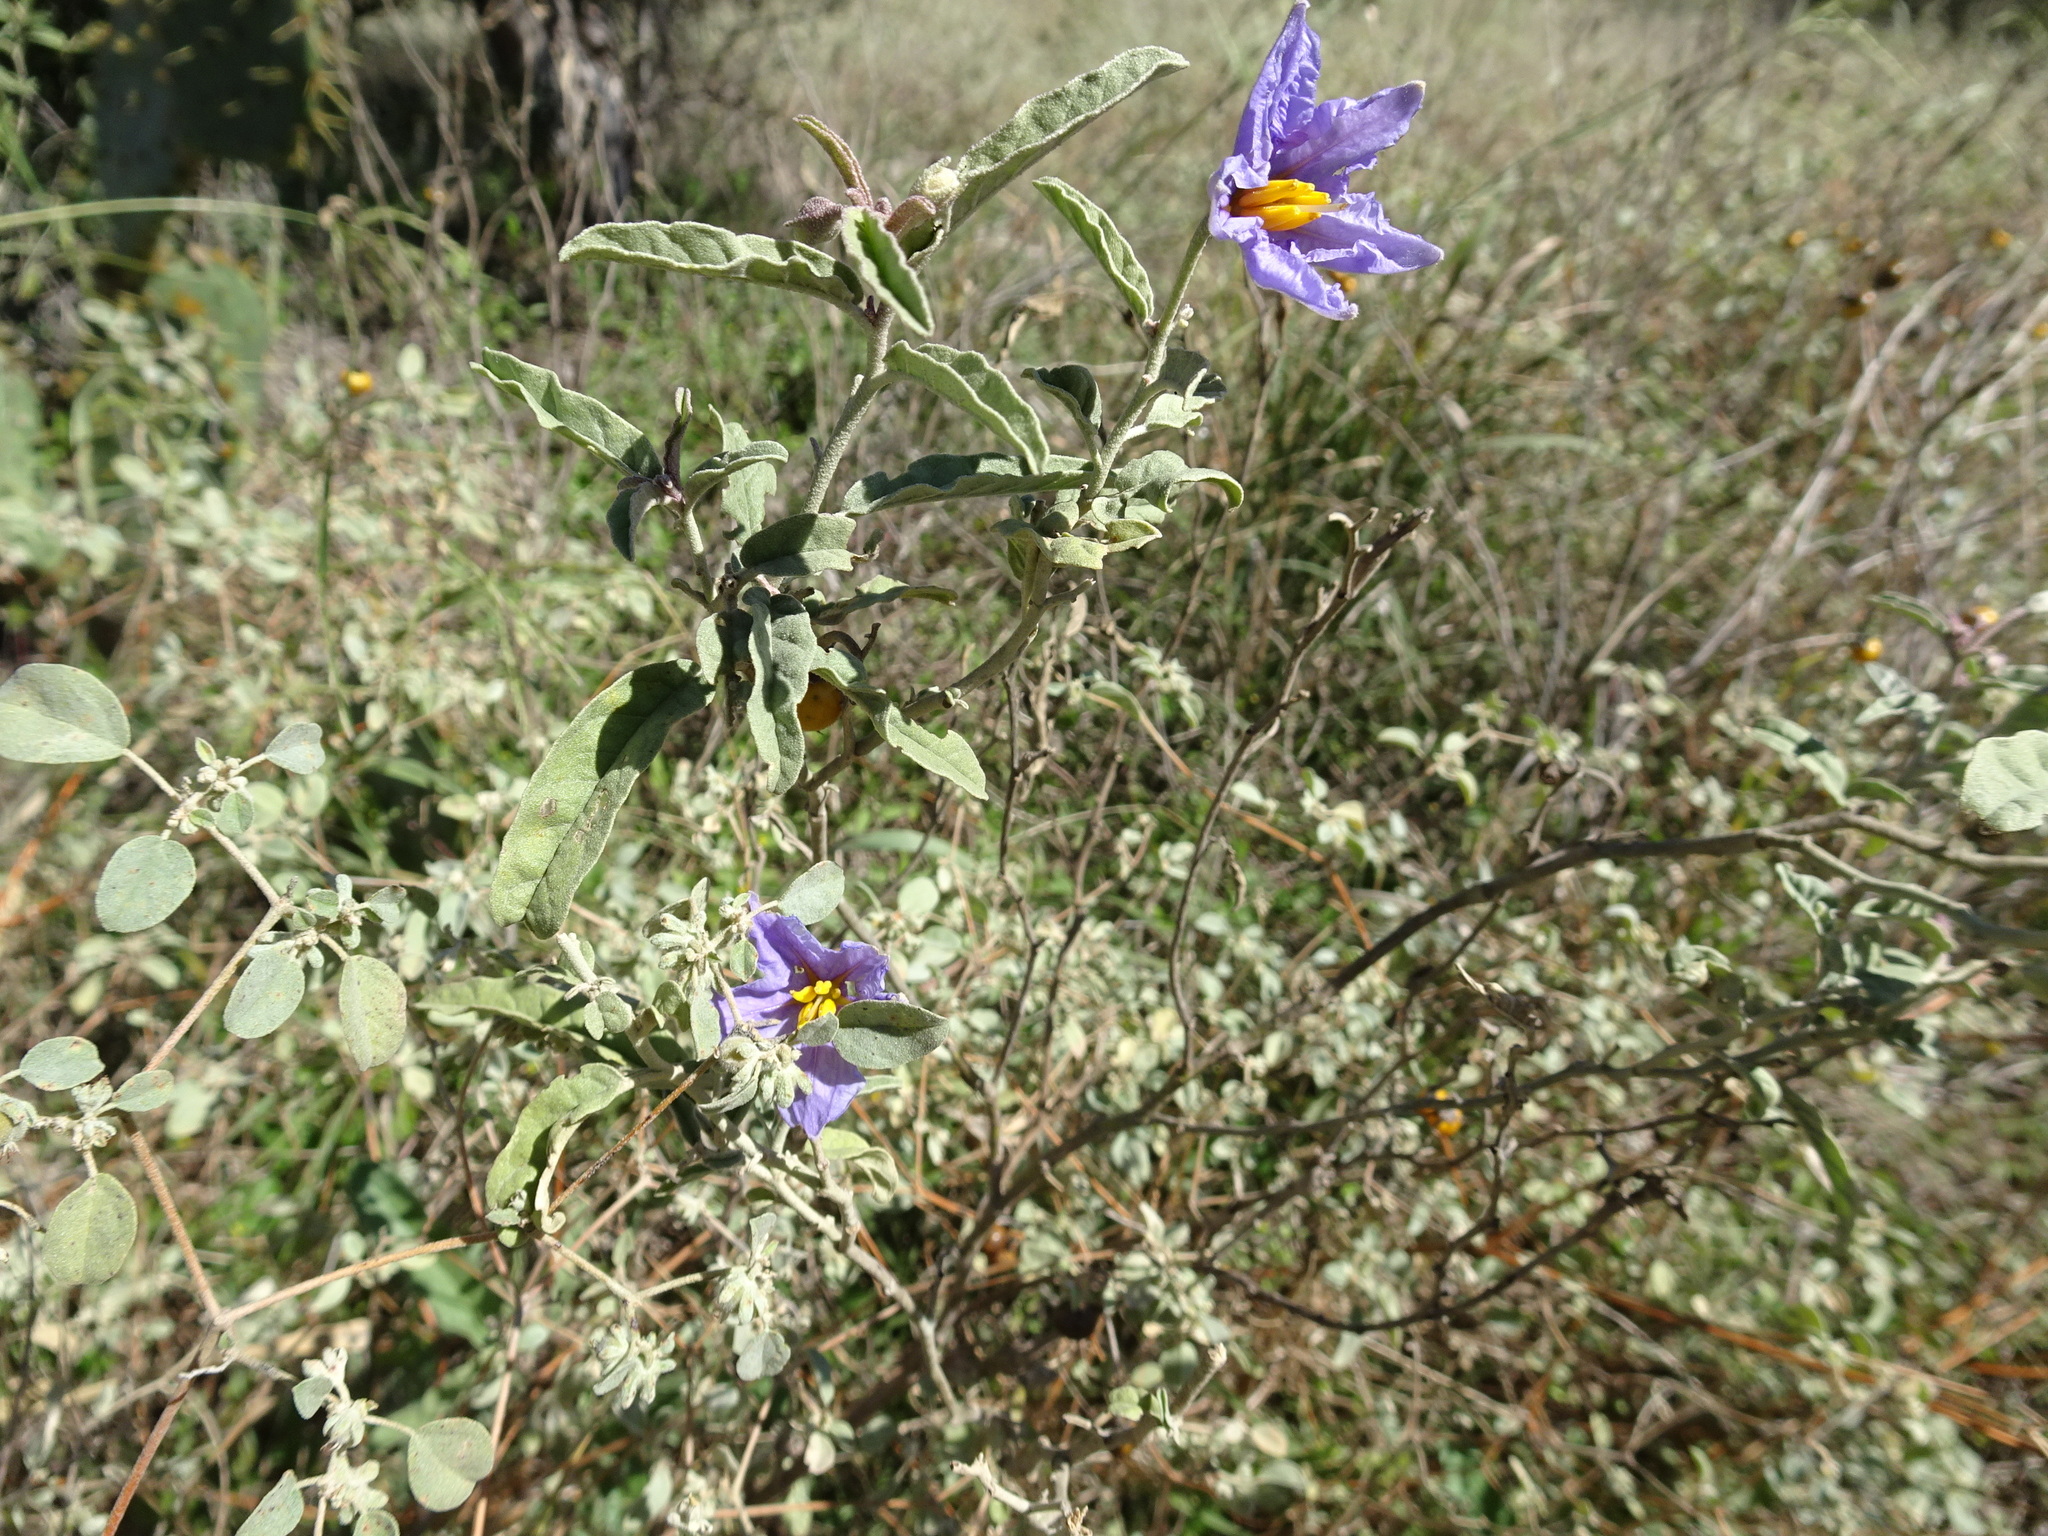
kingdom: Plantae
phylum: Tracheophyta
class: Magnoliopsida
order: Solanales
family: Solanaceae
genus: Solanum
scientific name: Solanum elaeagnifolium
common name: Silverleaf nightshade
